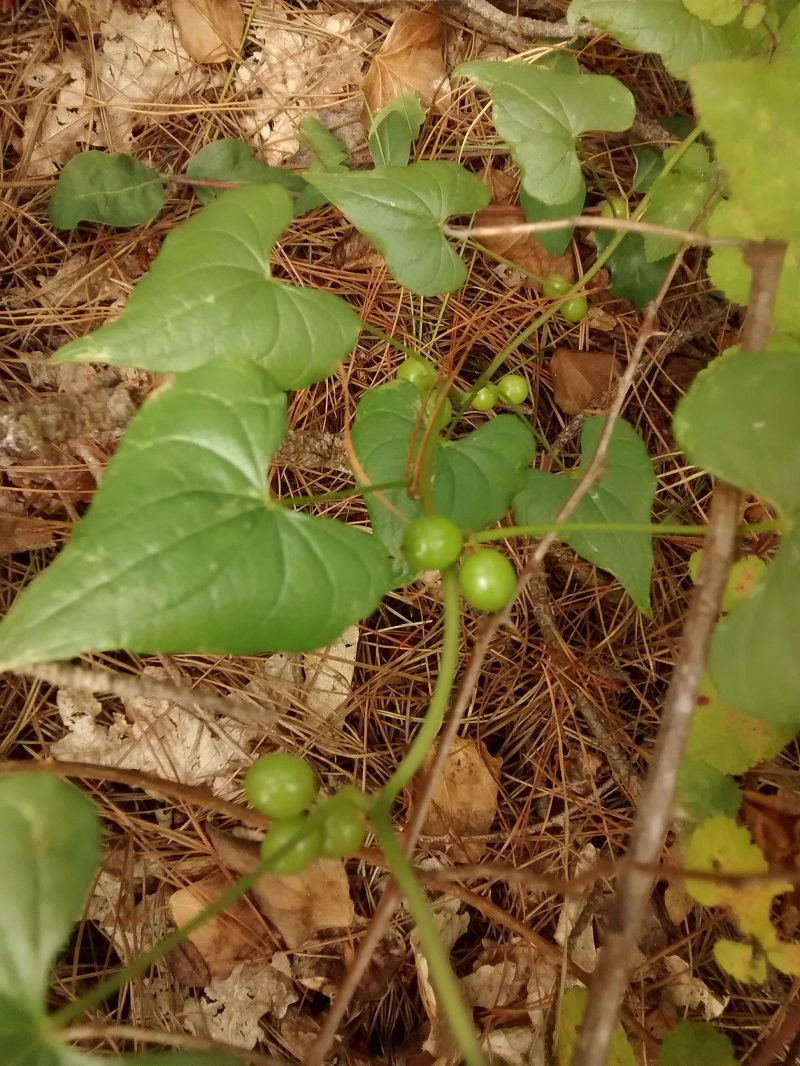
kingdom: Plantae
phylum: Tracheophyta
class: Liliopsida
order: Dioscoreales
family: Dioscoreaceae
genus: Dioscorea
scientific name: Dioscorea communis
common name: Black-bindweed
